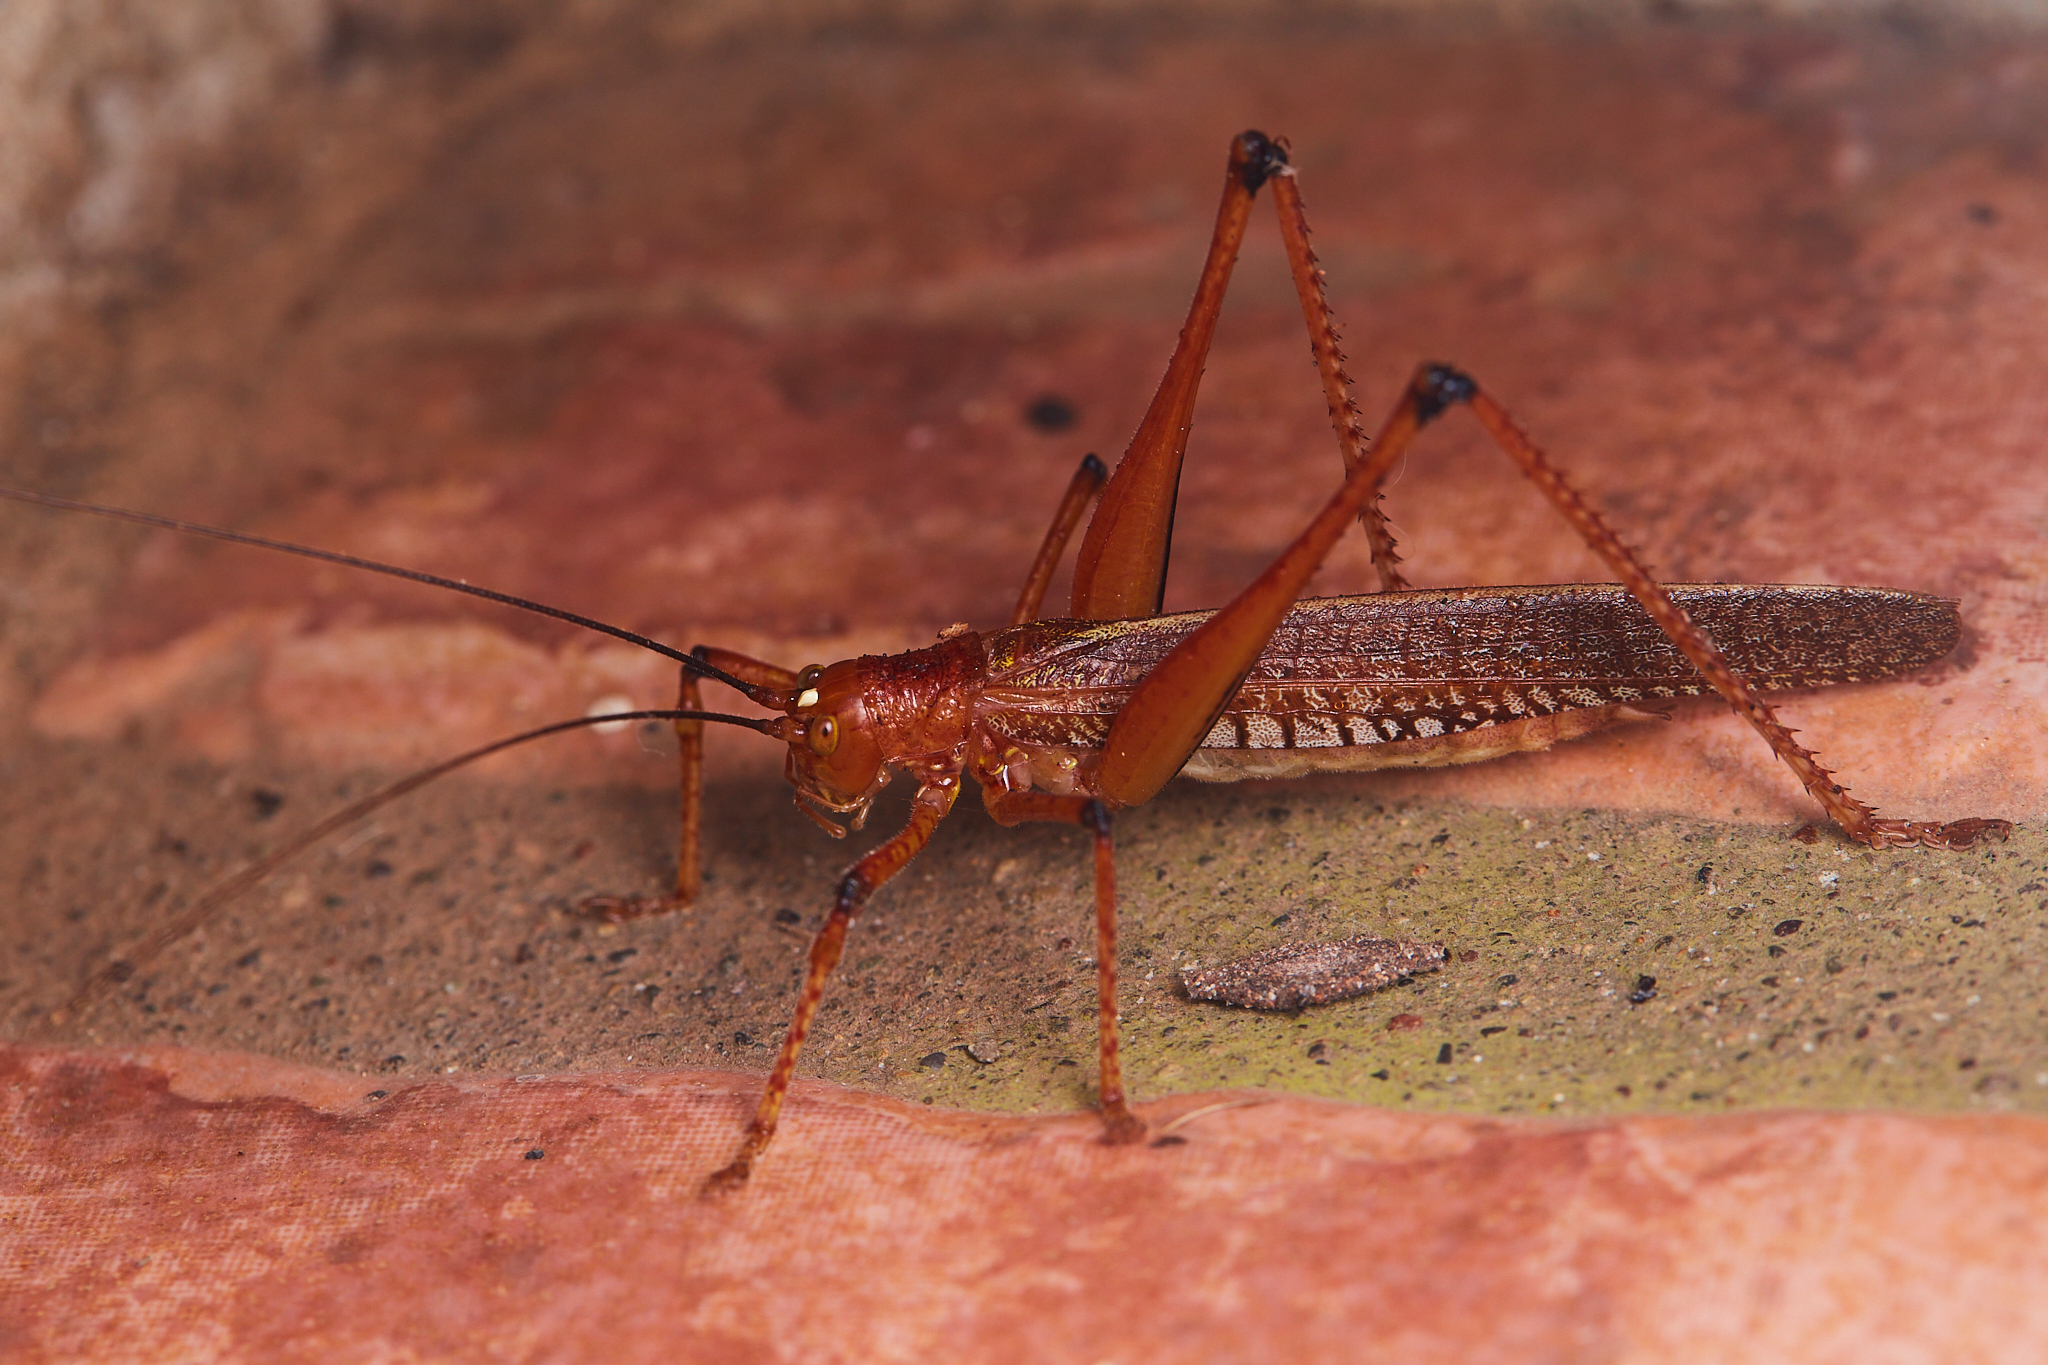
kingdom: Animalia
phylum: Arthropoda
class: Insecta
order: Orthoptera
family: Tettigoniidae
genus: Ischnomela
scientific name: Ischnomela gracilis
